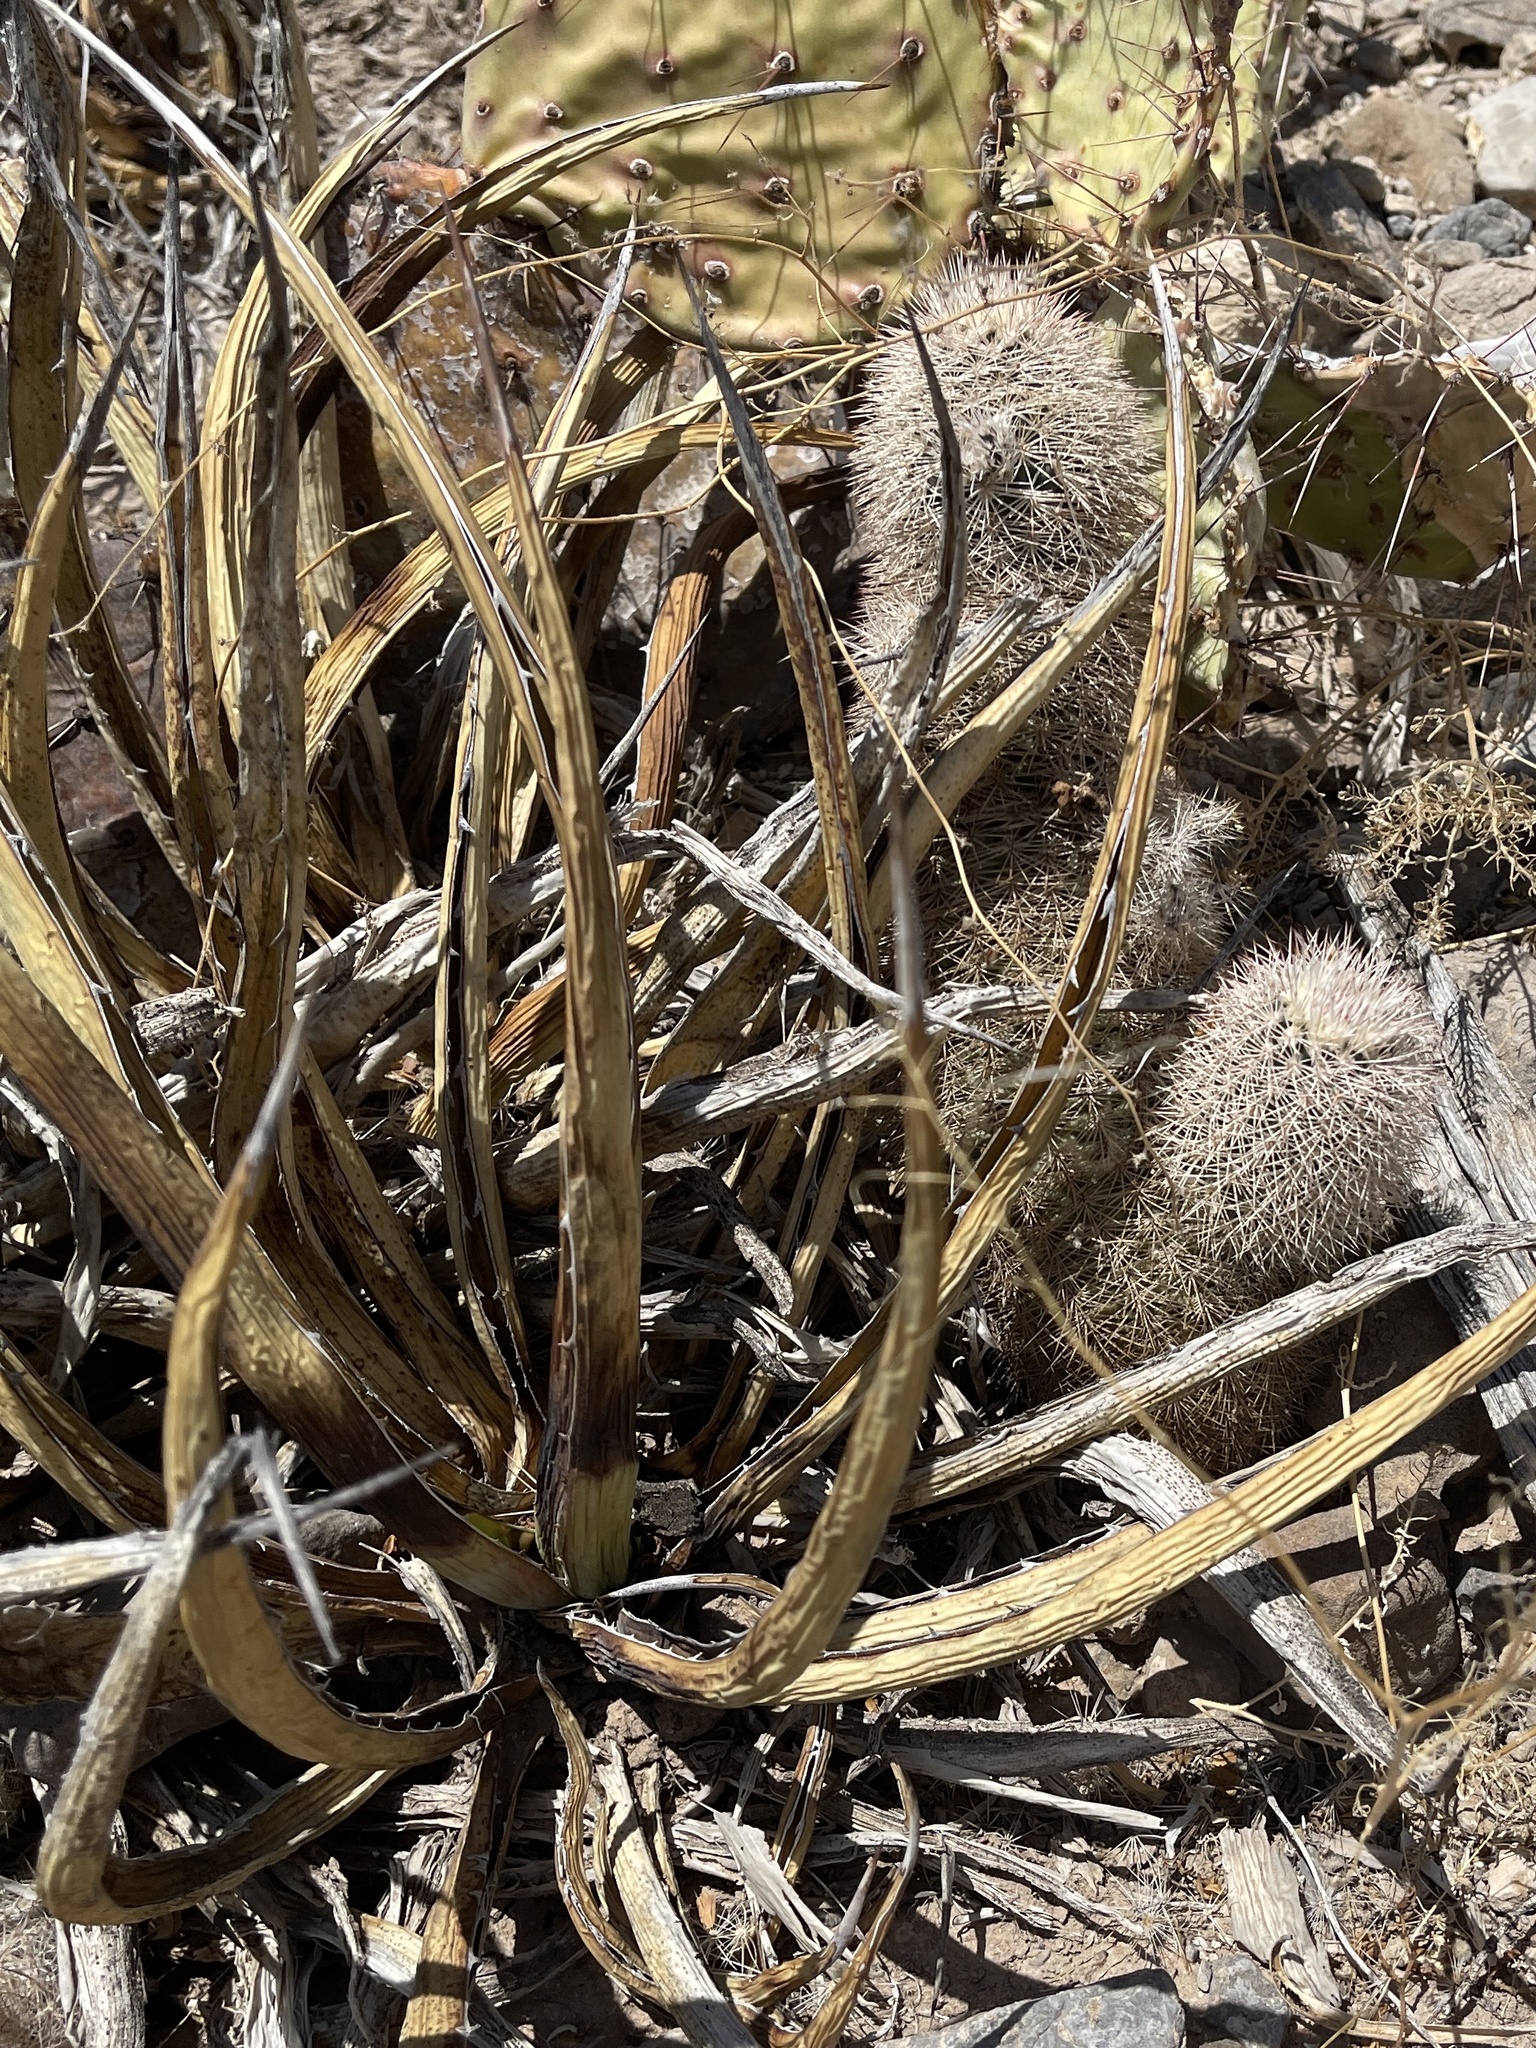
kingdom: Plantae
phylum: Tracheophyta
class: Liliopsida
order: Asparagales
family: Asparagaceae
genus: Agave
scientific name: Agave lechuguilla
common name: Lecheguilla agave
